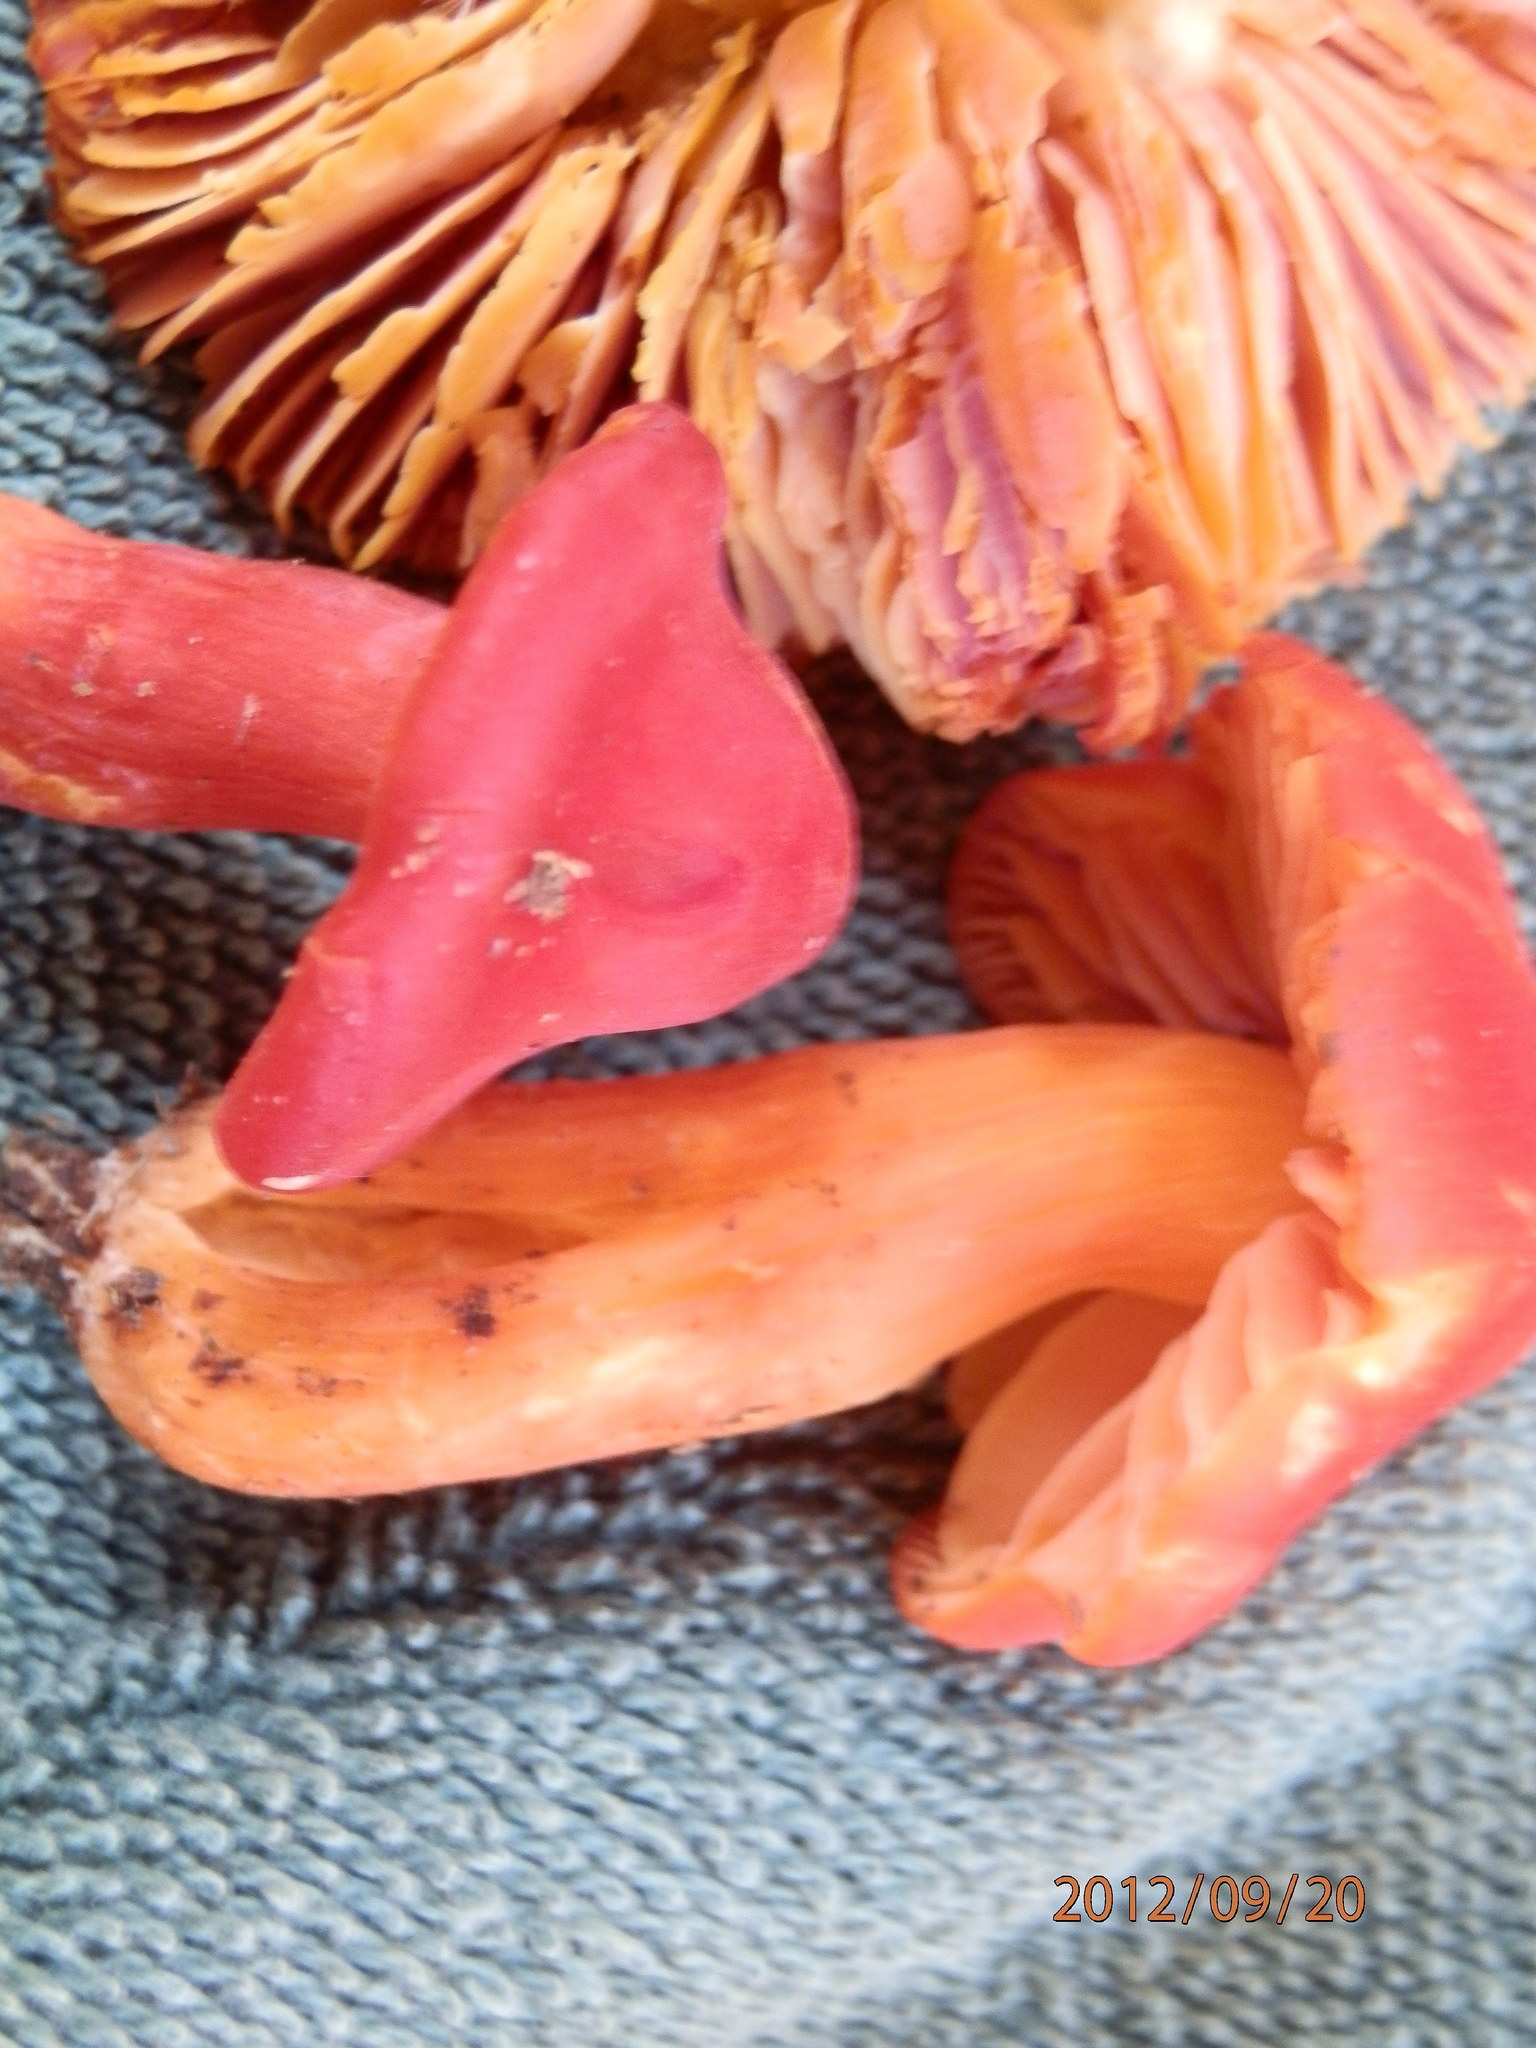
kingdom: Fungi
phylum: Basidiomycota
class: Agaricomycetes
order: Agaricales
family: Hygrophoraceae
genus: Hygrocybe
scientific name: Hygrocybe punicea
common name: Crimson waxcap
